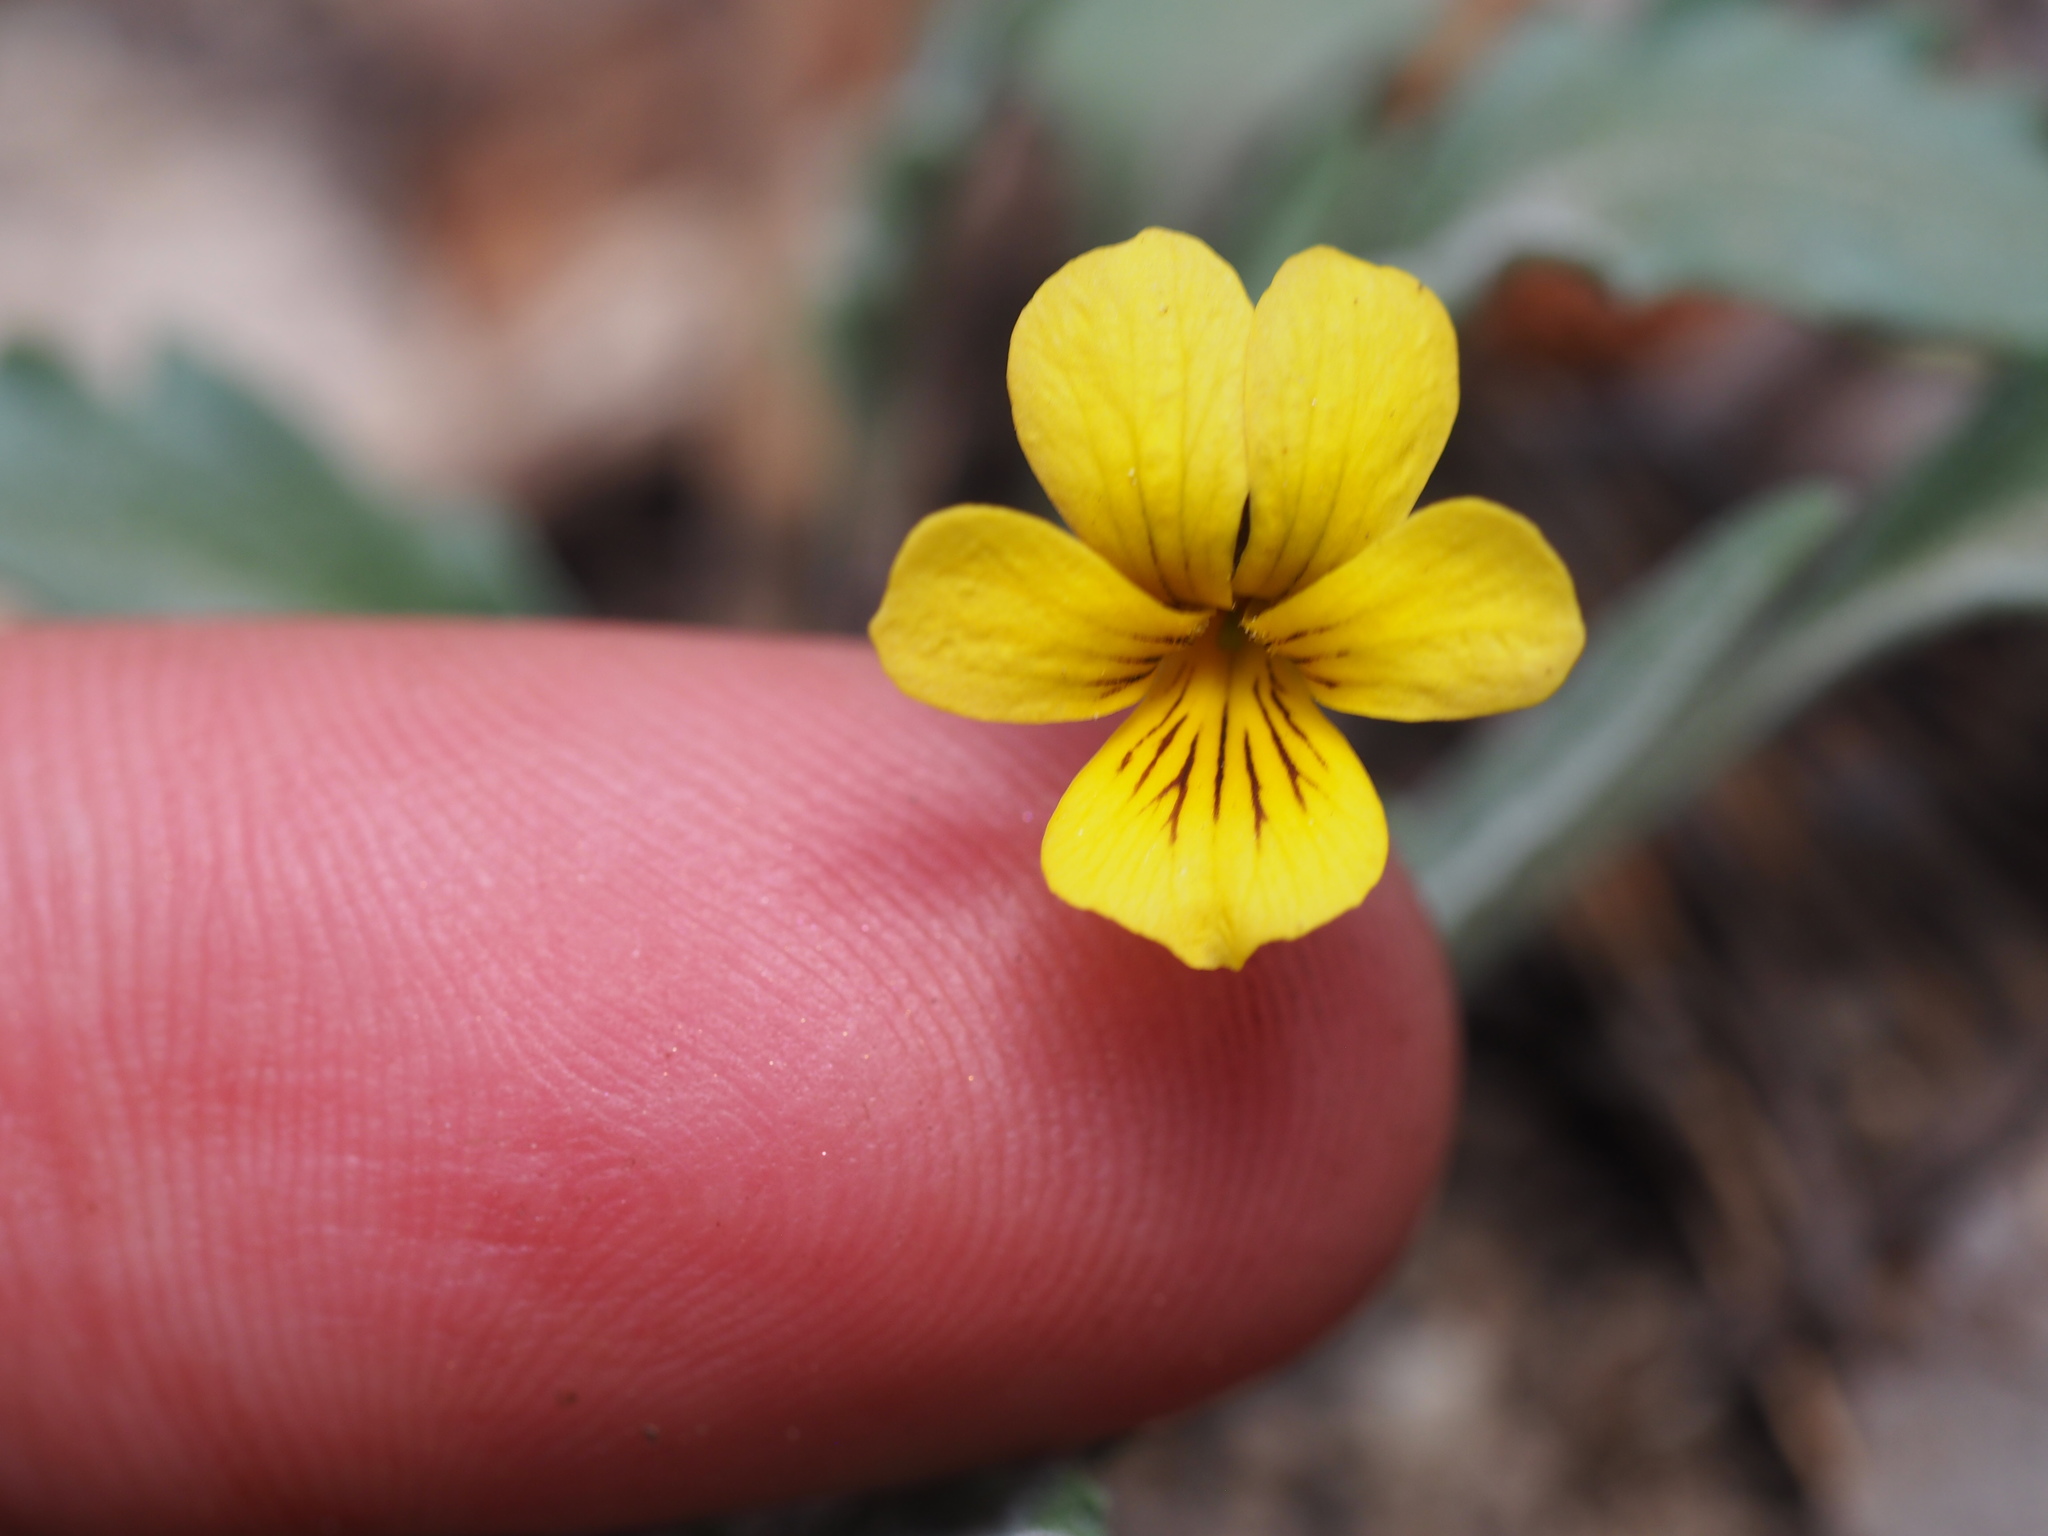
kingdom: Plantae
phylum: Tracheophyta
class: Magnoliopsida
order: Malpighiales
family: Violaceae
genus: Viola
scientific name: Viola pinetorum
